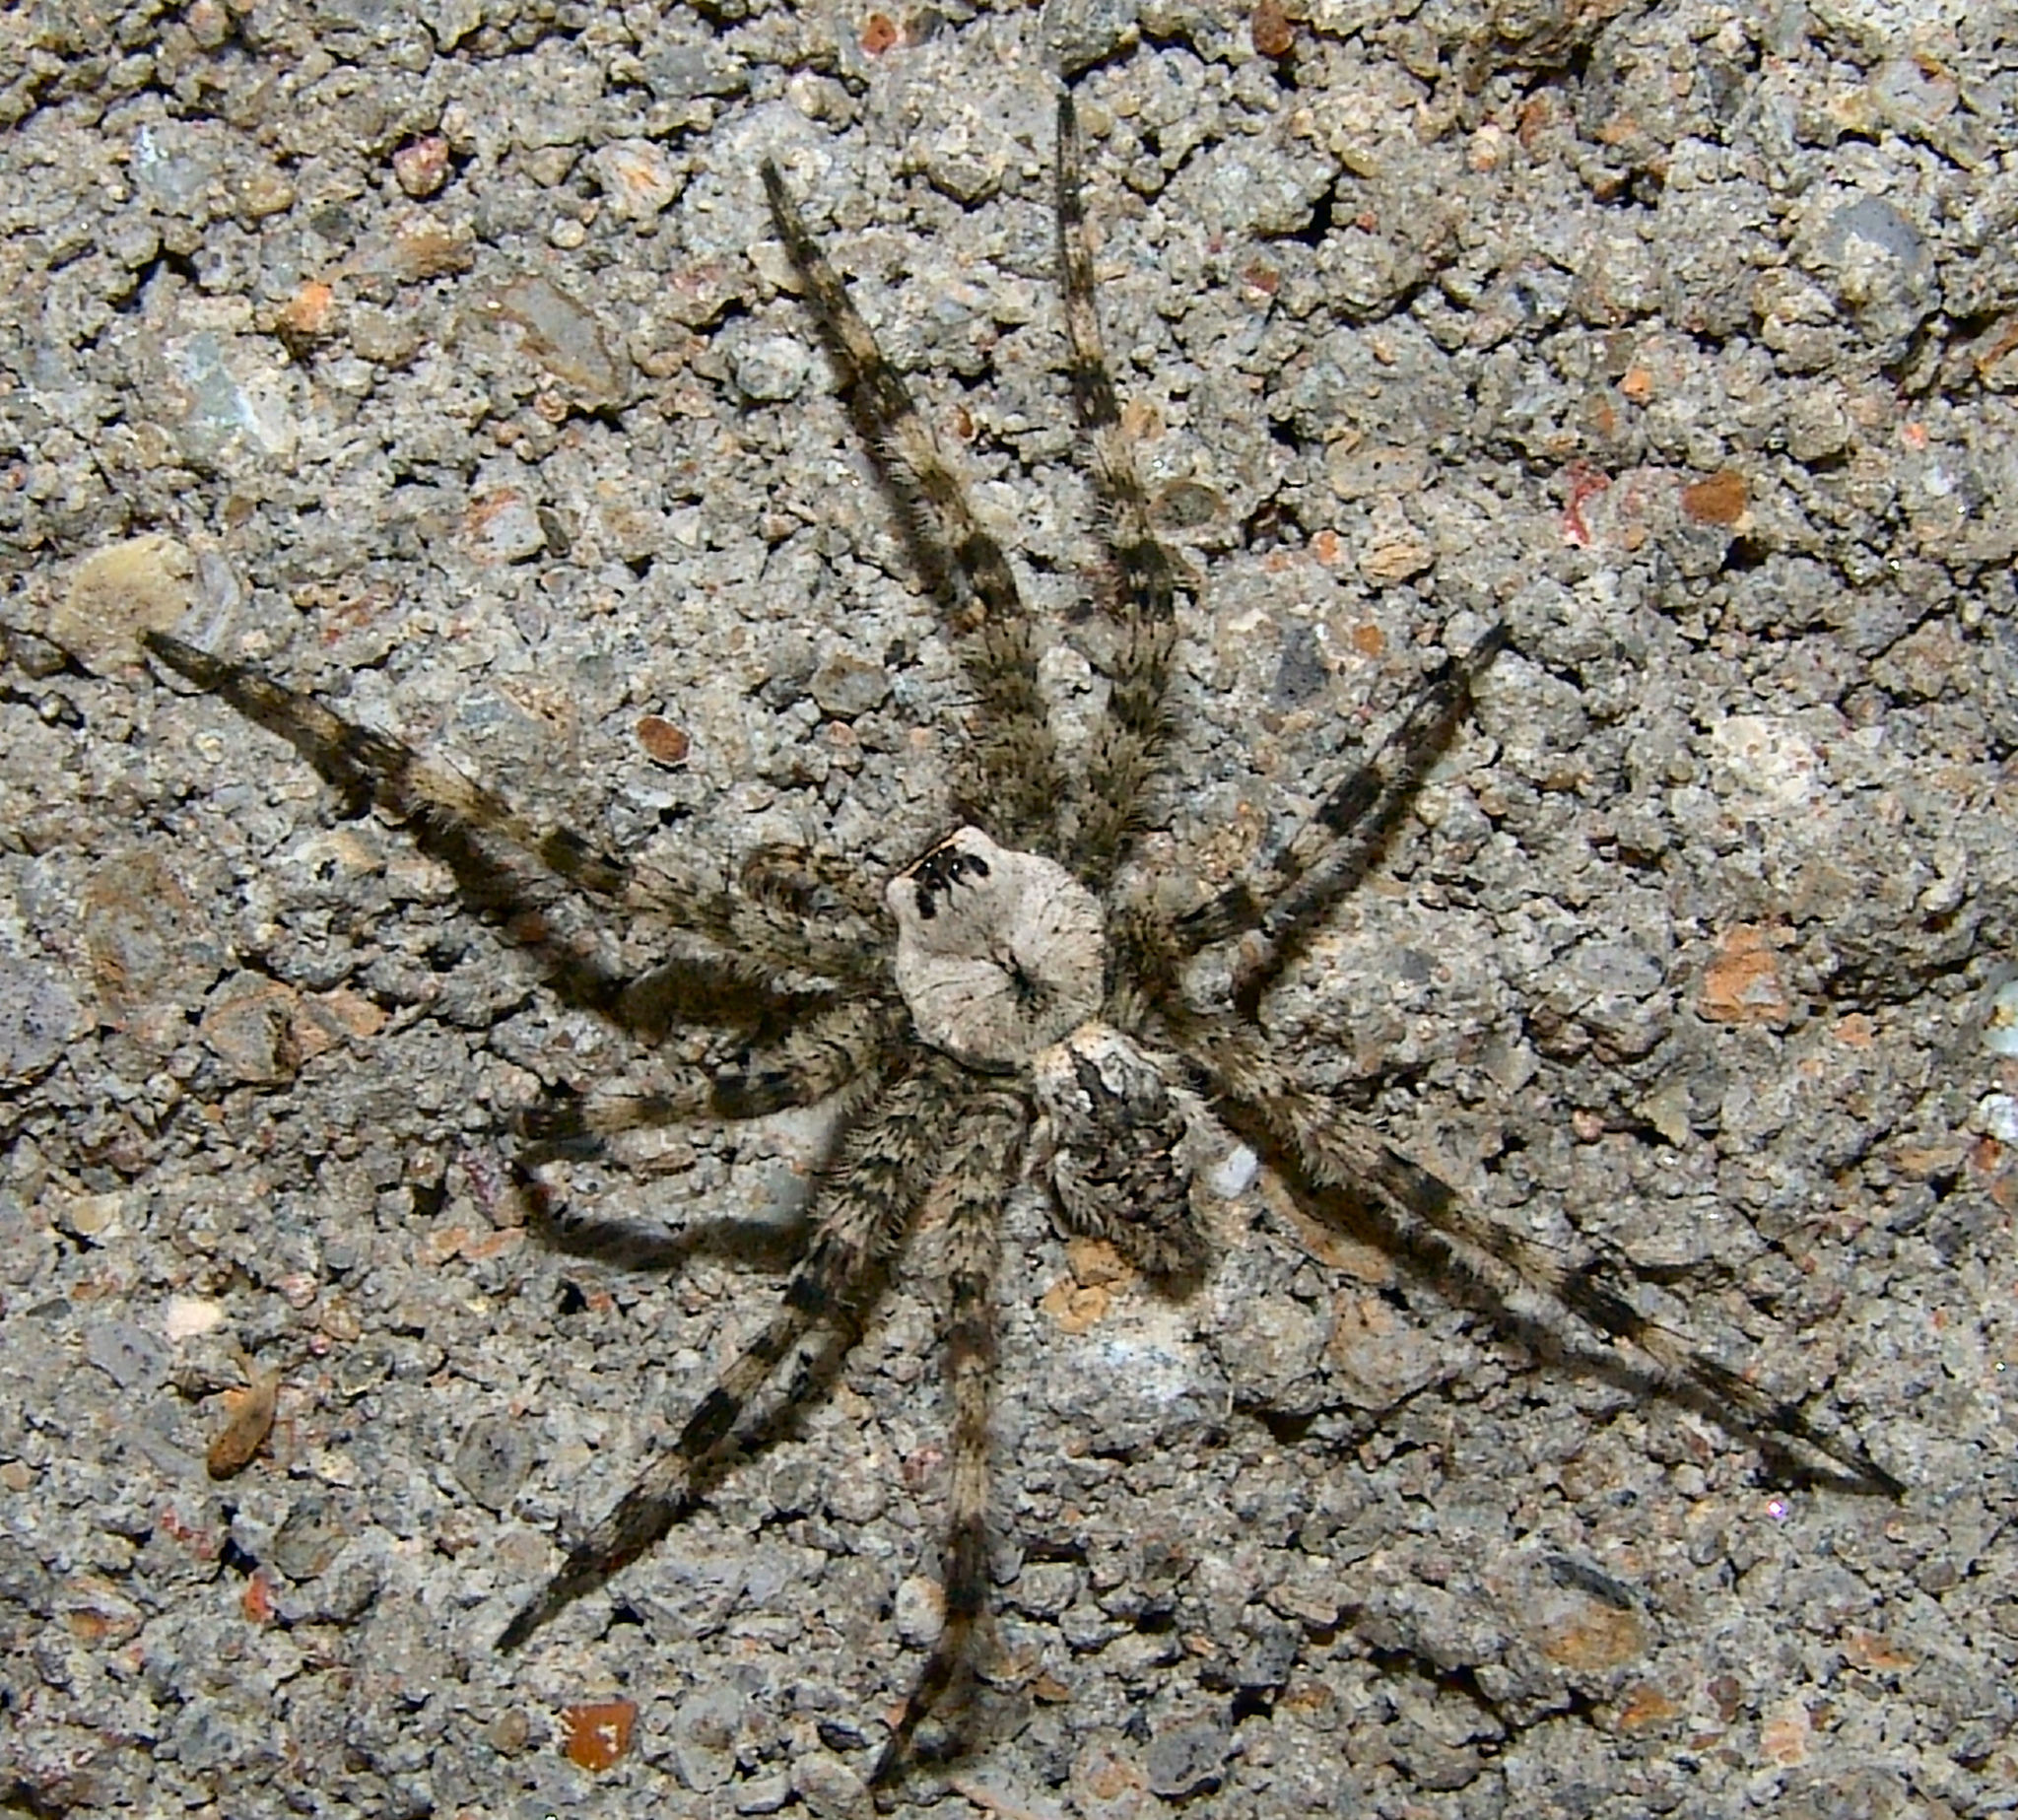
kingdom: Animalia
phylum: Arthropoda
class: Arachnida
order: Araneae
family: Pisauridae
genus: Dolomedes
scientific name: Dolomedes albineus
